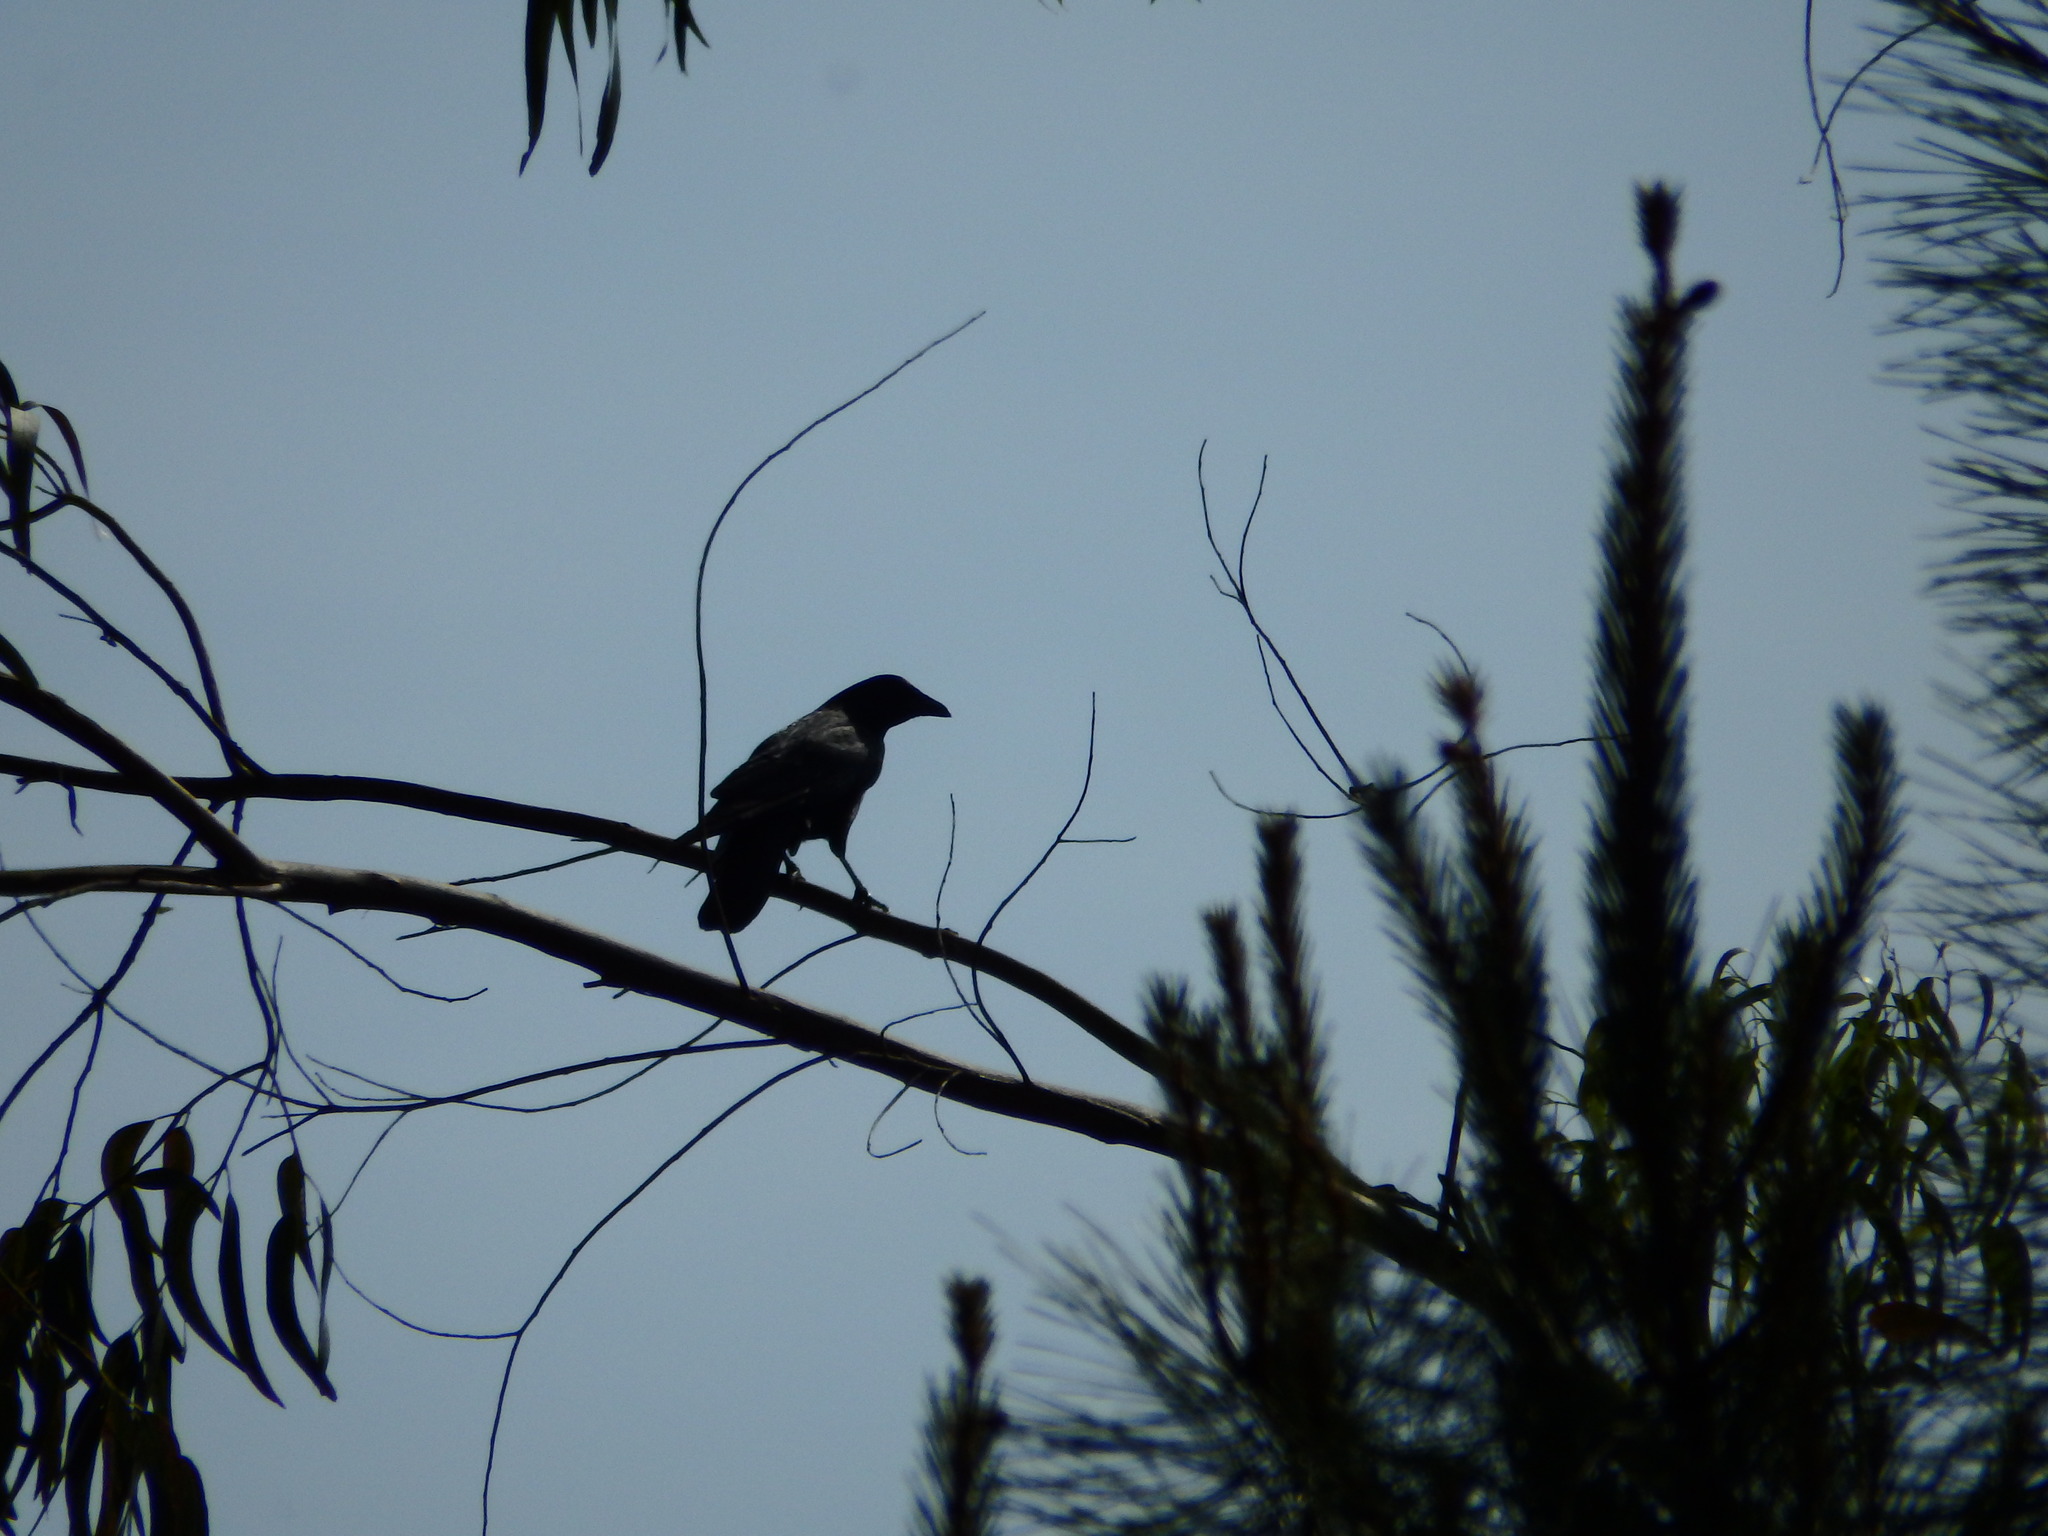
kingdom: Animalia
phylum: Chordata
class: Aves
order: Passeriformes
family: Corvidae
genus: Corvus
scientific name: Corvus corone
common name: Carrion crow
